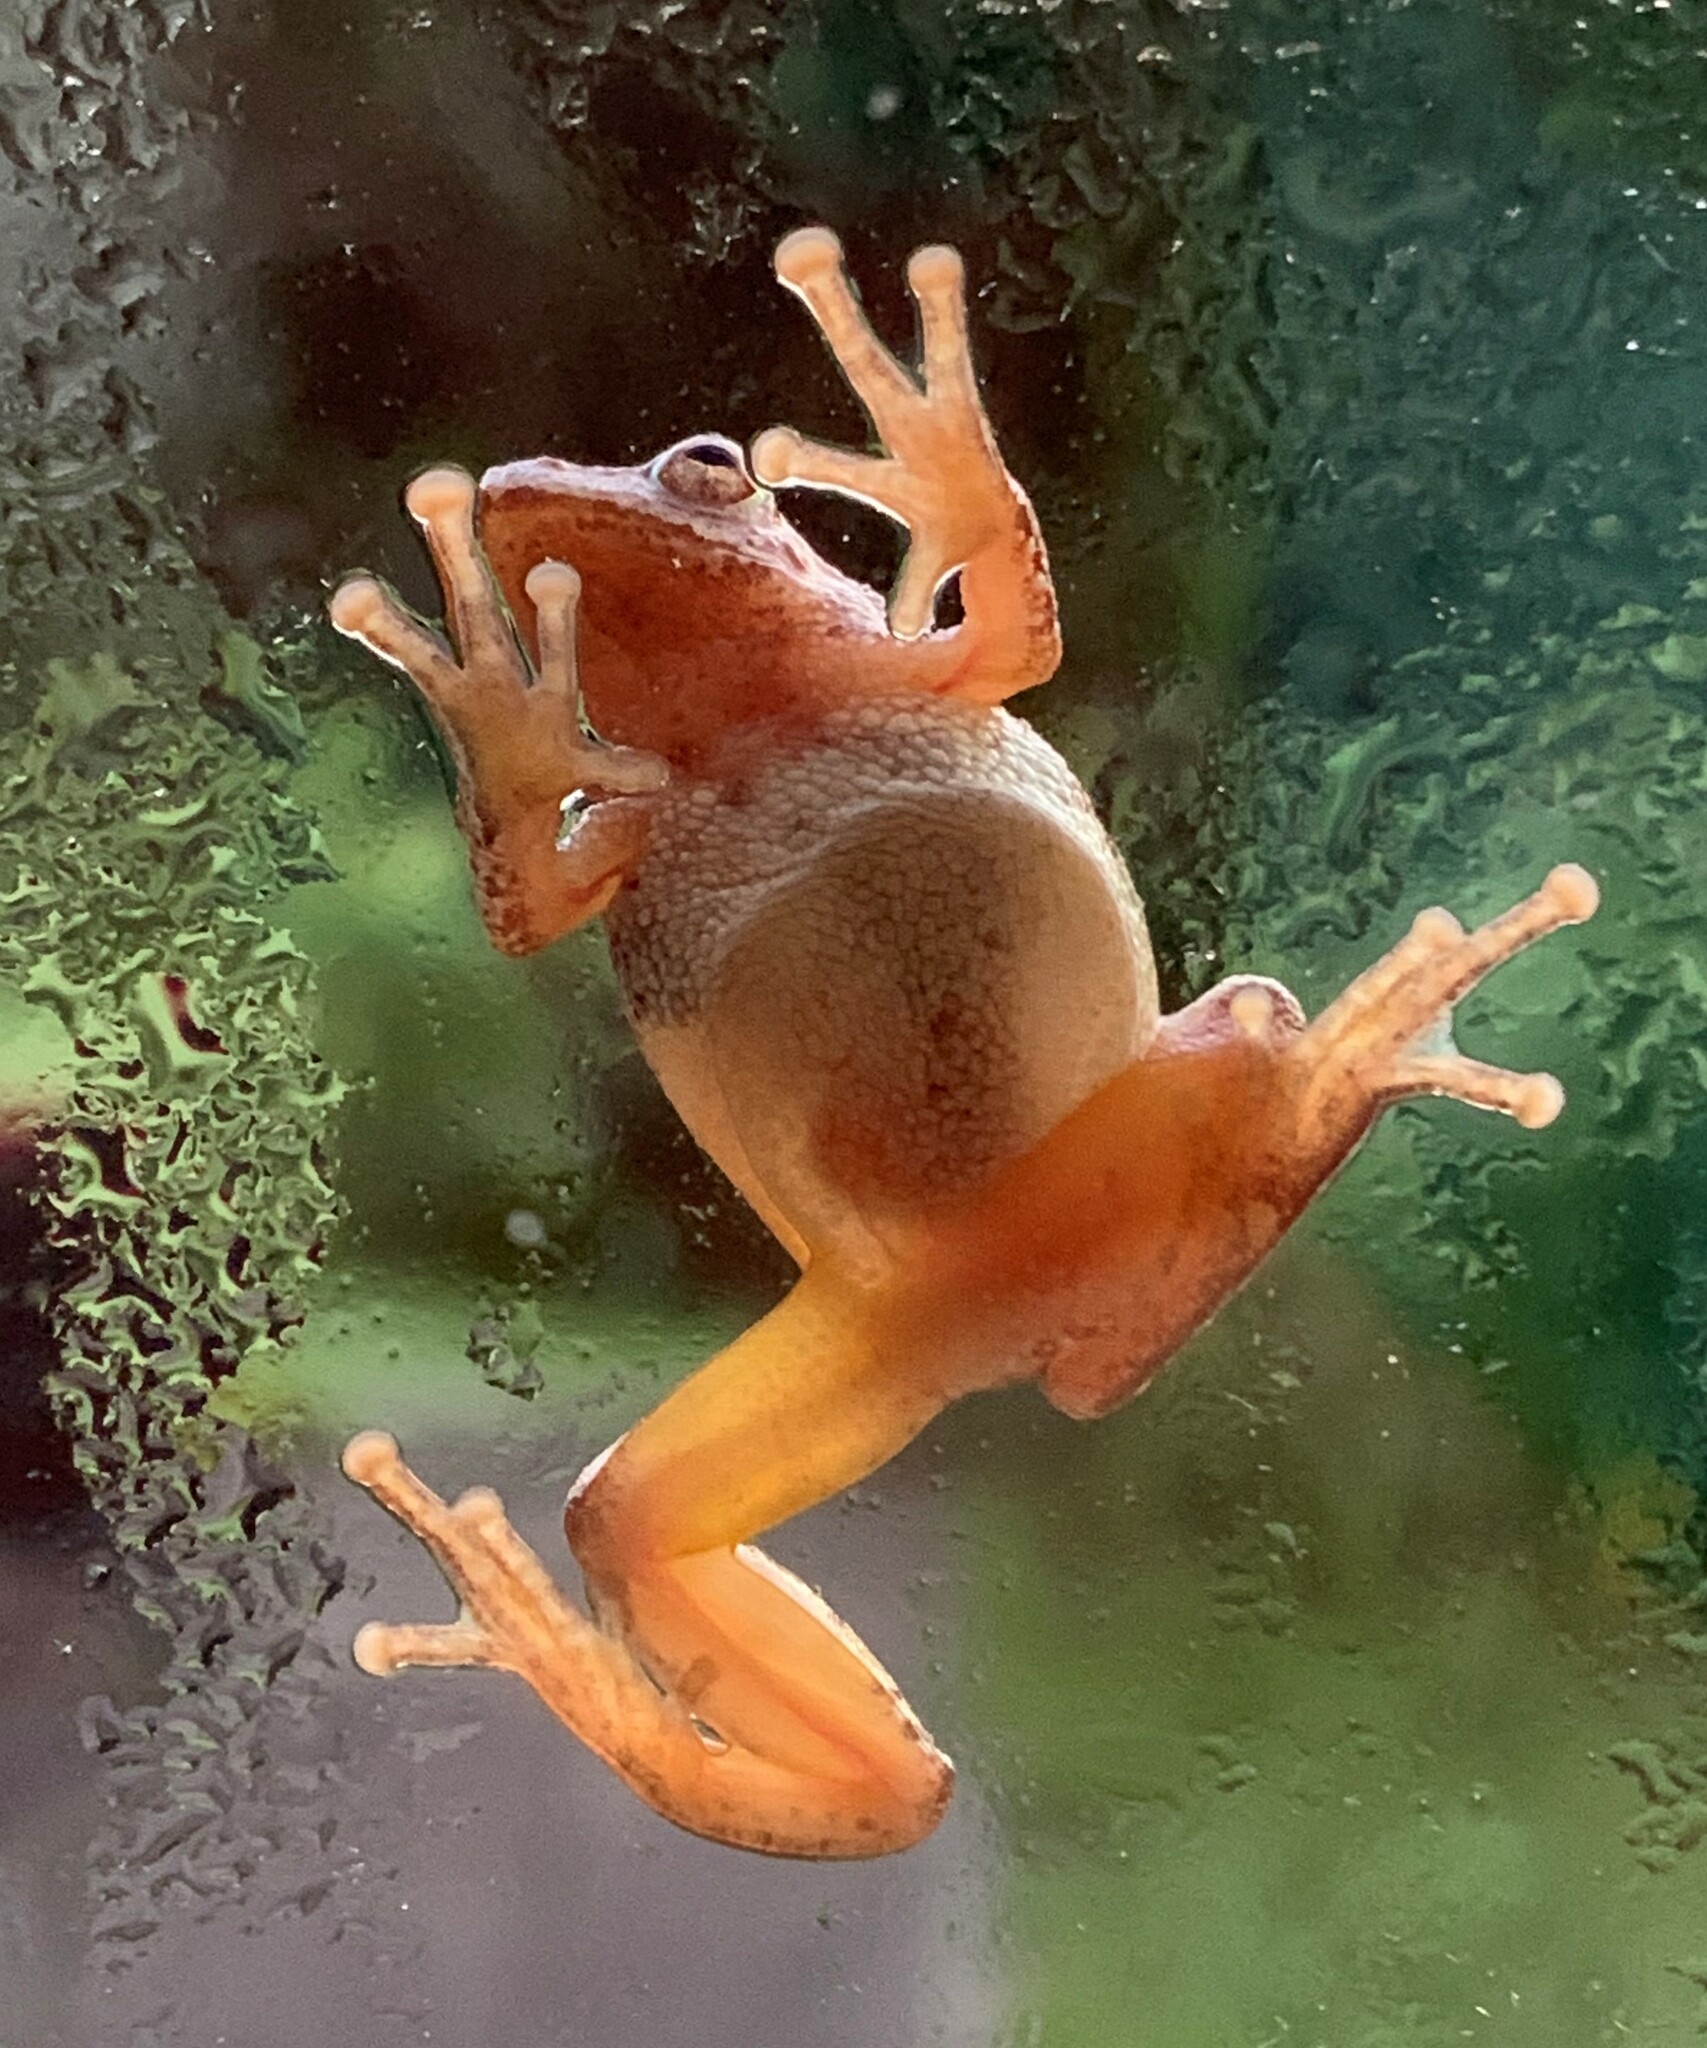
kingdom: Animalia
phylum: Chordata
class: Amphibia
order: Anura
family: Hylidae
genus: Pseudacris
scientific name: Pseudacris crucifer
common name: Spring peeper
